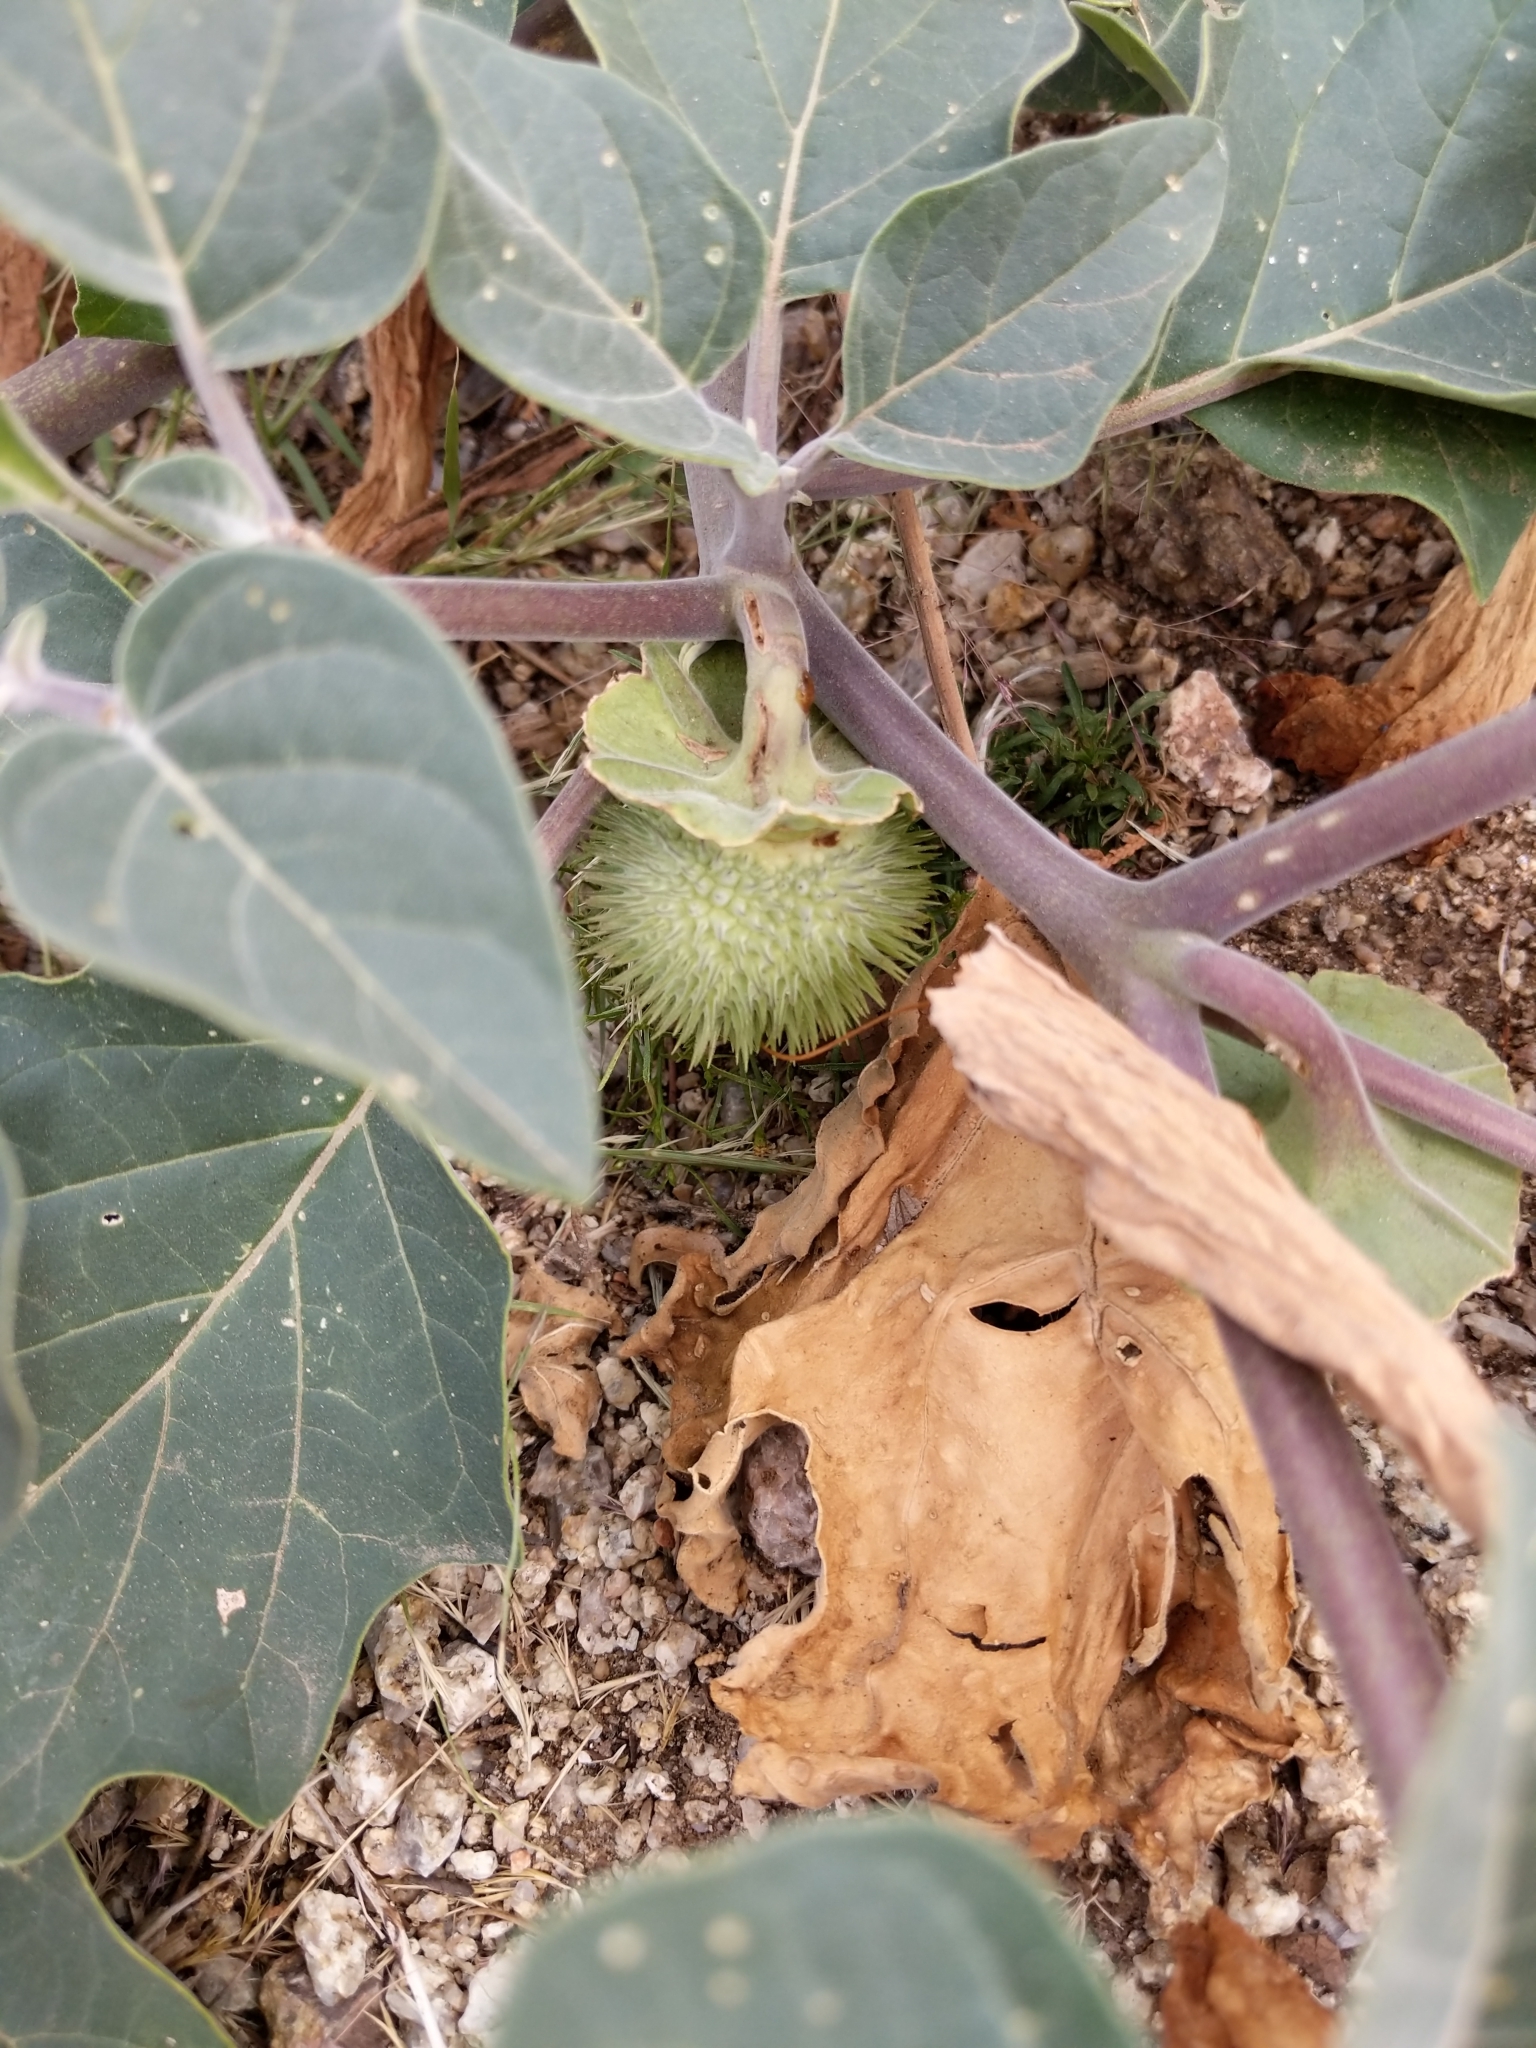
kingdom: Plantae
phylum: Tracheophyta
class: Magnoliopsida
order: Solanales
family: Solanaceae
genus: Datura
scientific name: Datura wrightii
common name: Sacred thorn-apple
